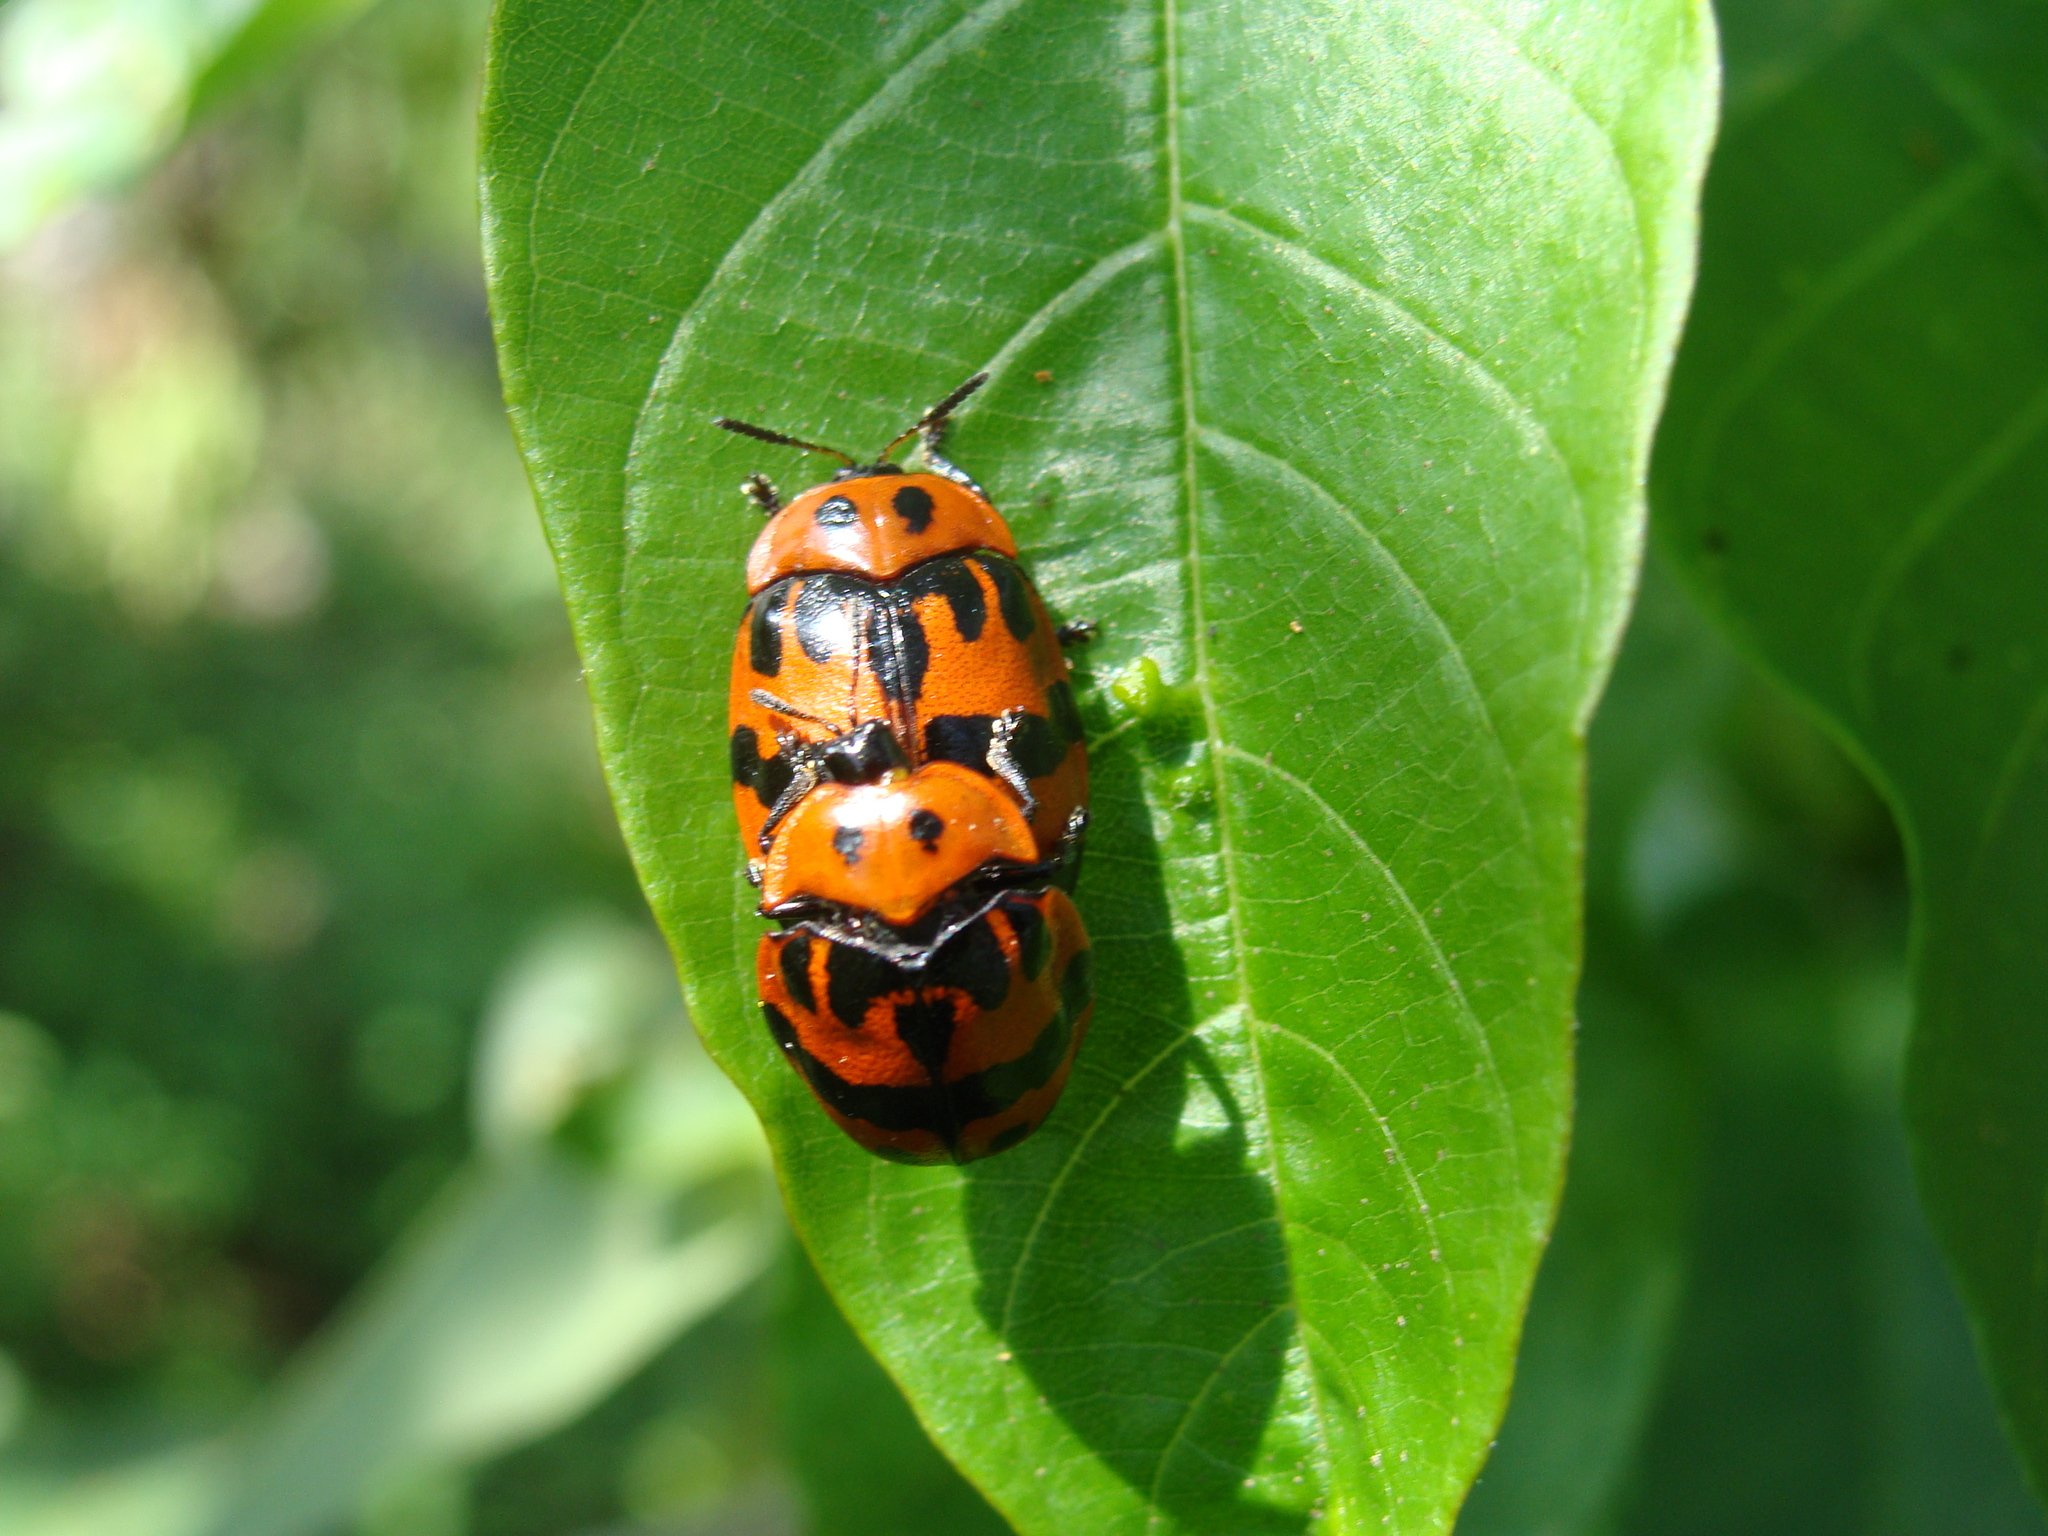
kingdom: Animalia
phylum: Arthropoda
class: Insecta
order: Coleoptera
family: Chrysomelidae
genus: Ogdoecosta
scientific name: Ogdoecosta fasciata
